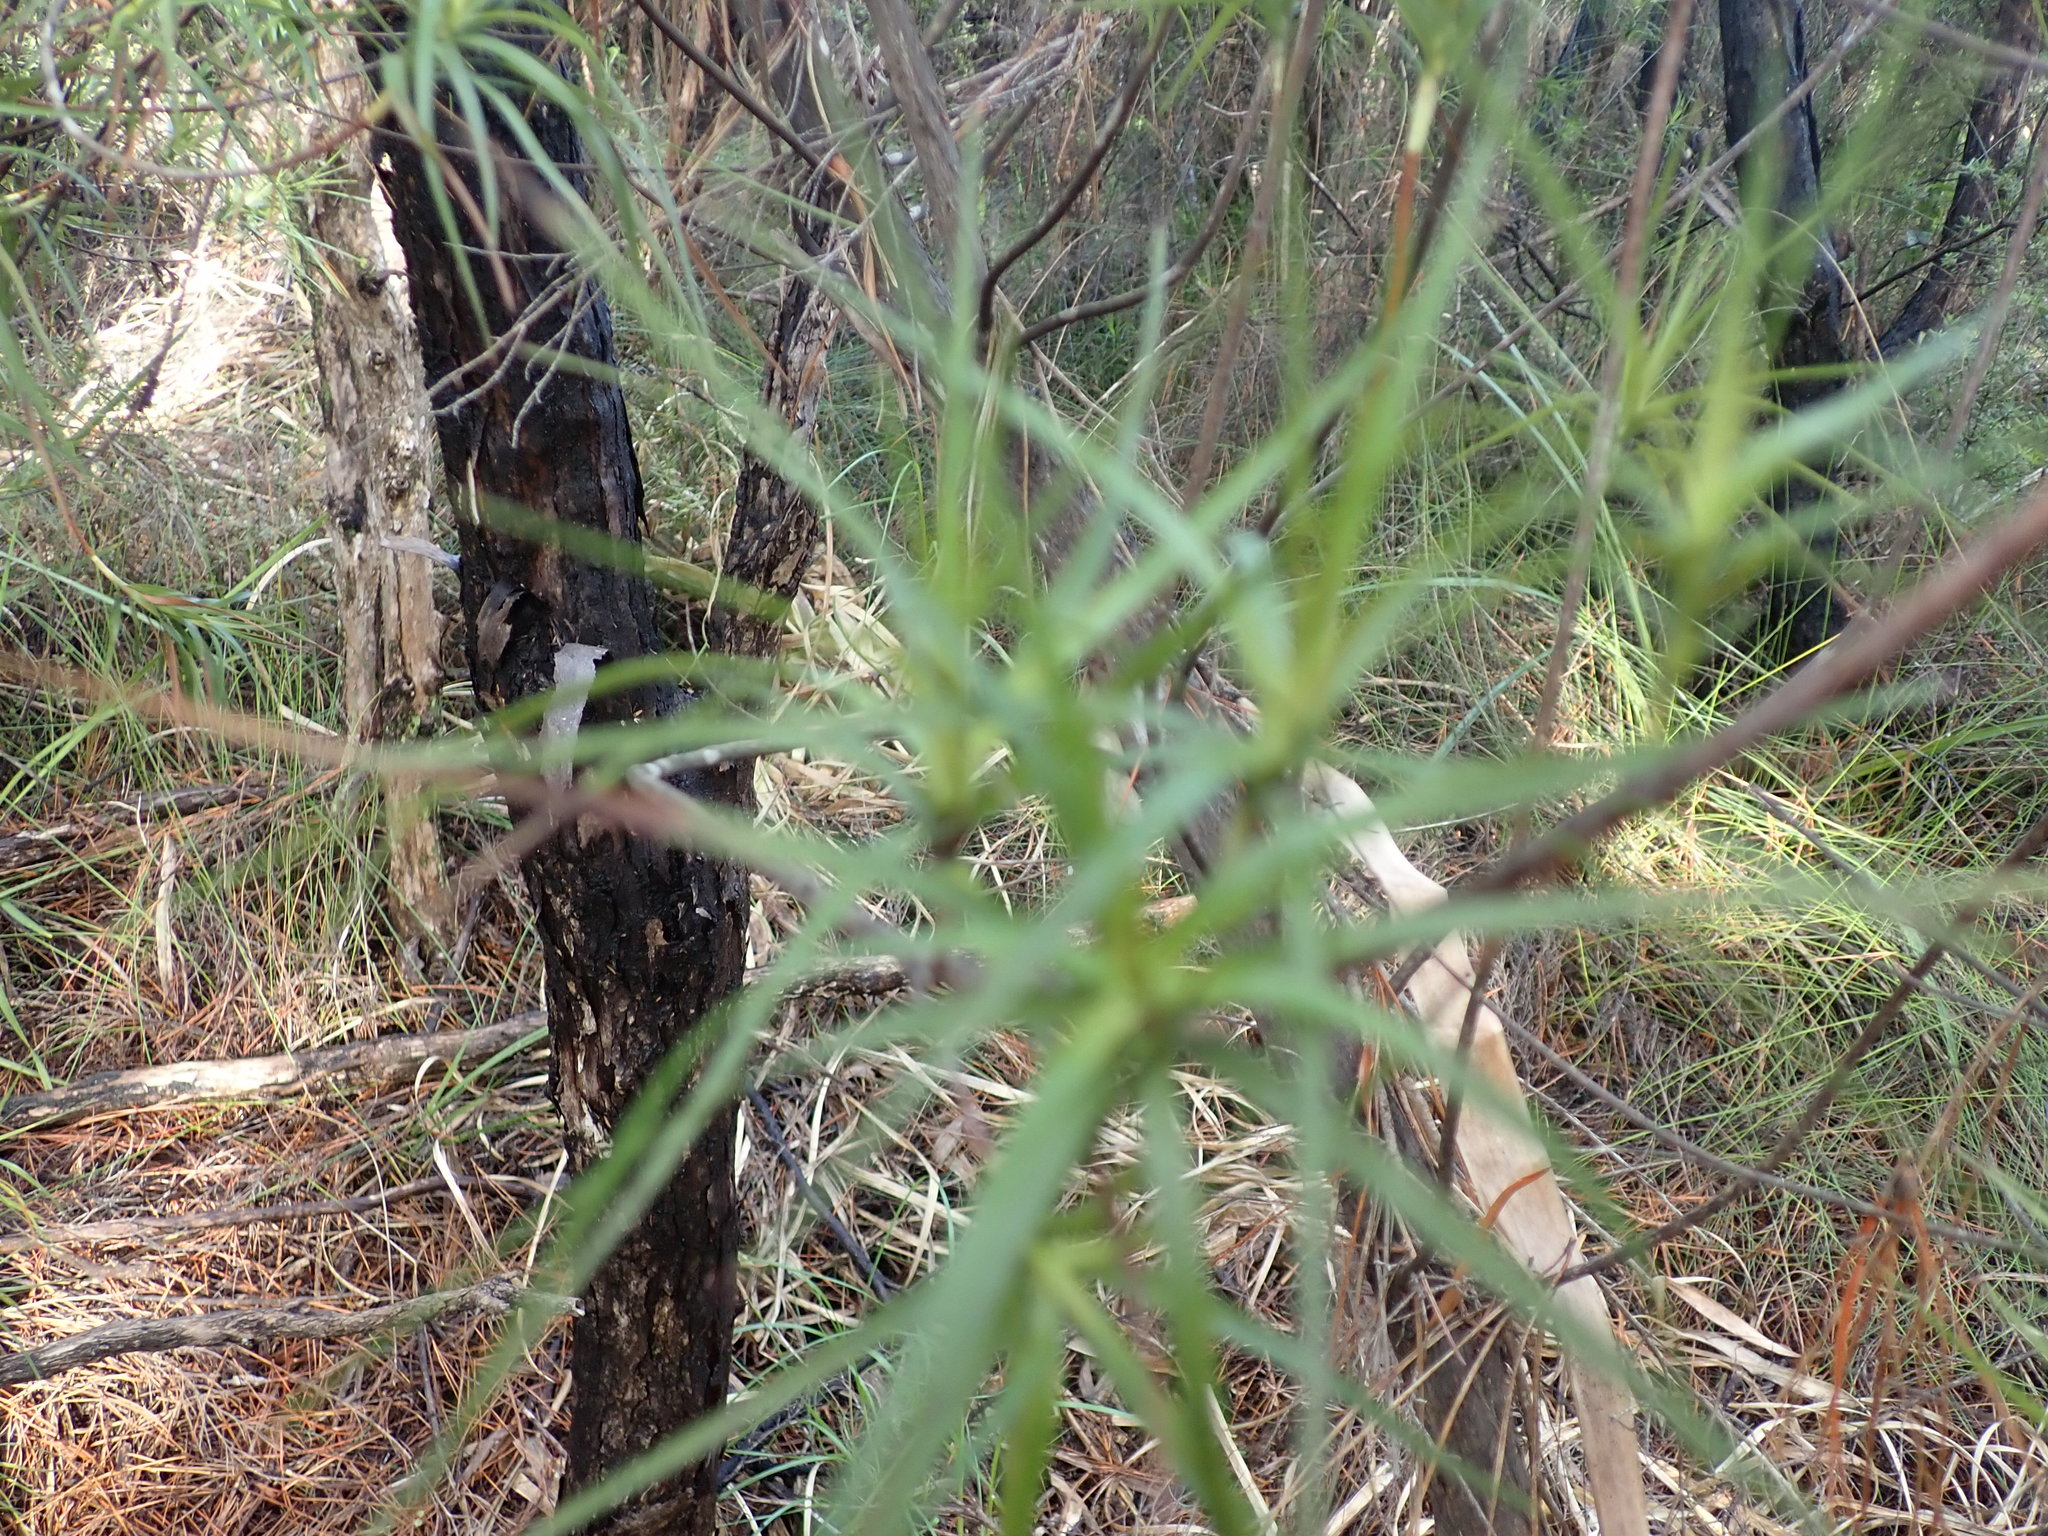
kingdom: Plantae
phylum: Tracheophyta
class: Magnoliopsida
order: Ericales
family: Ericaceae
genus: Dracophyllum
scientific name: Dracophyllum sinclairii
